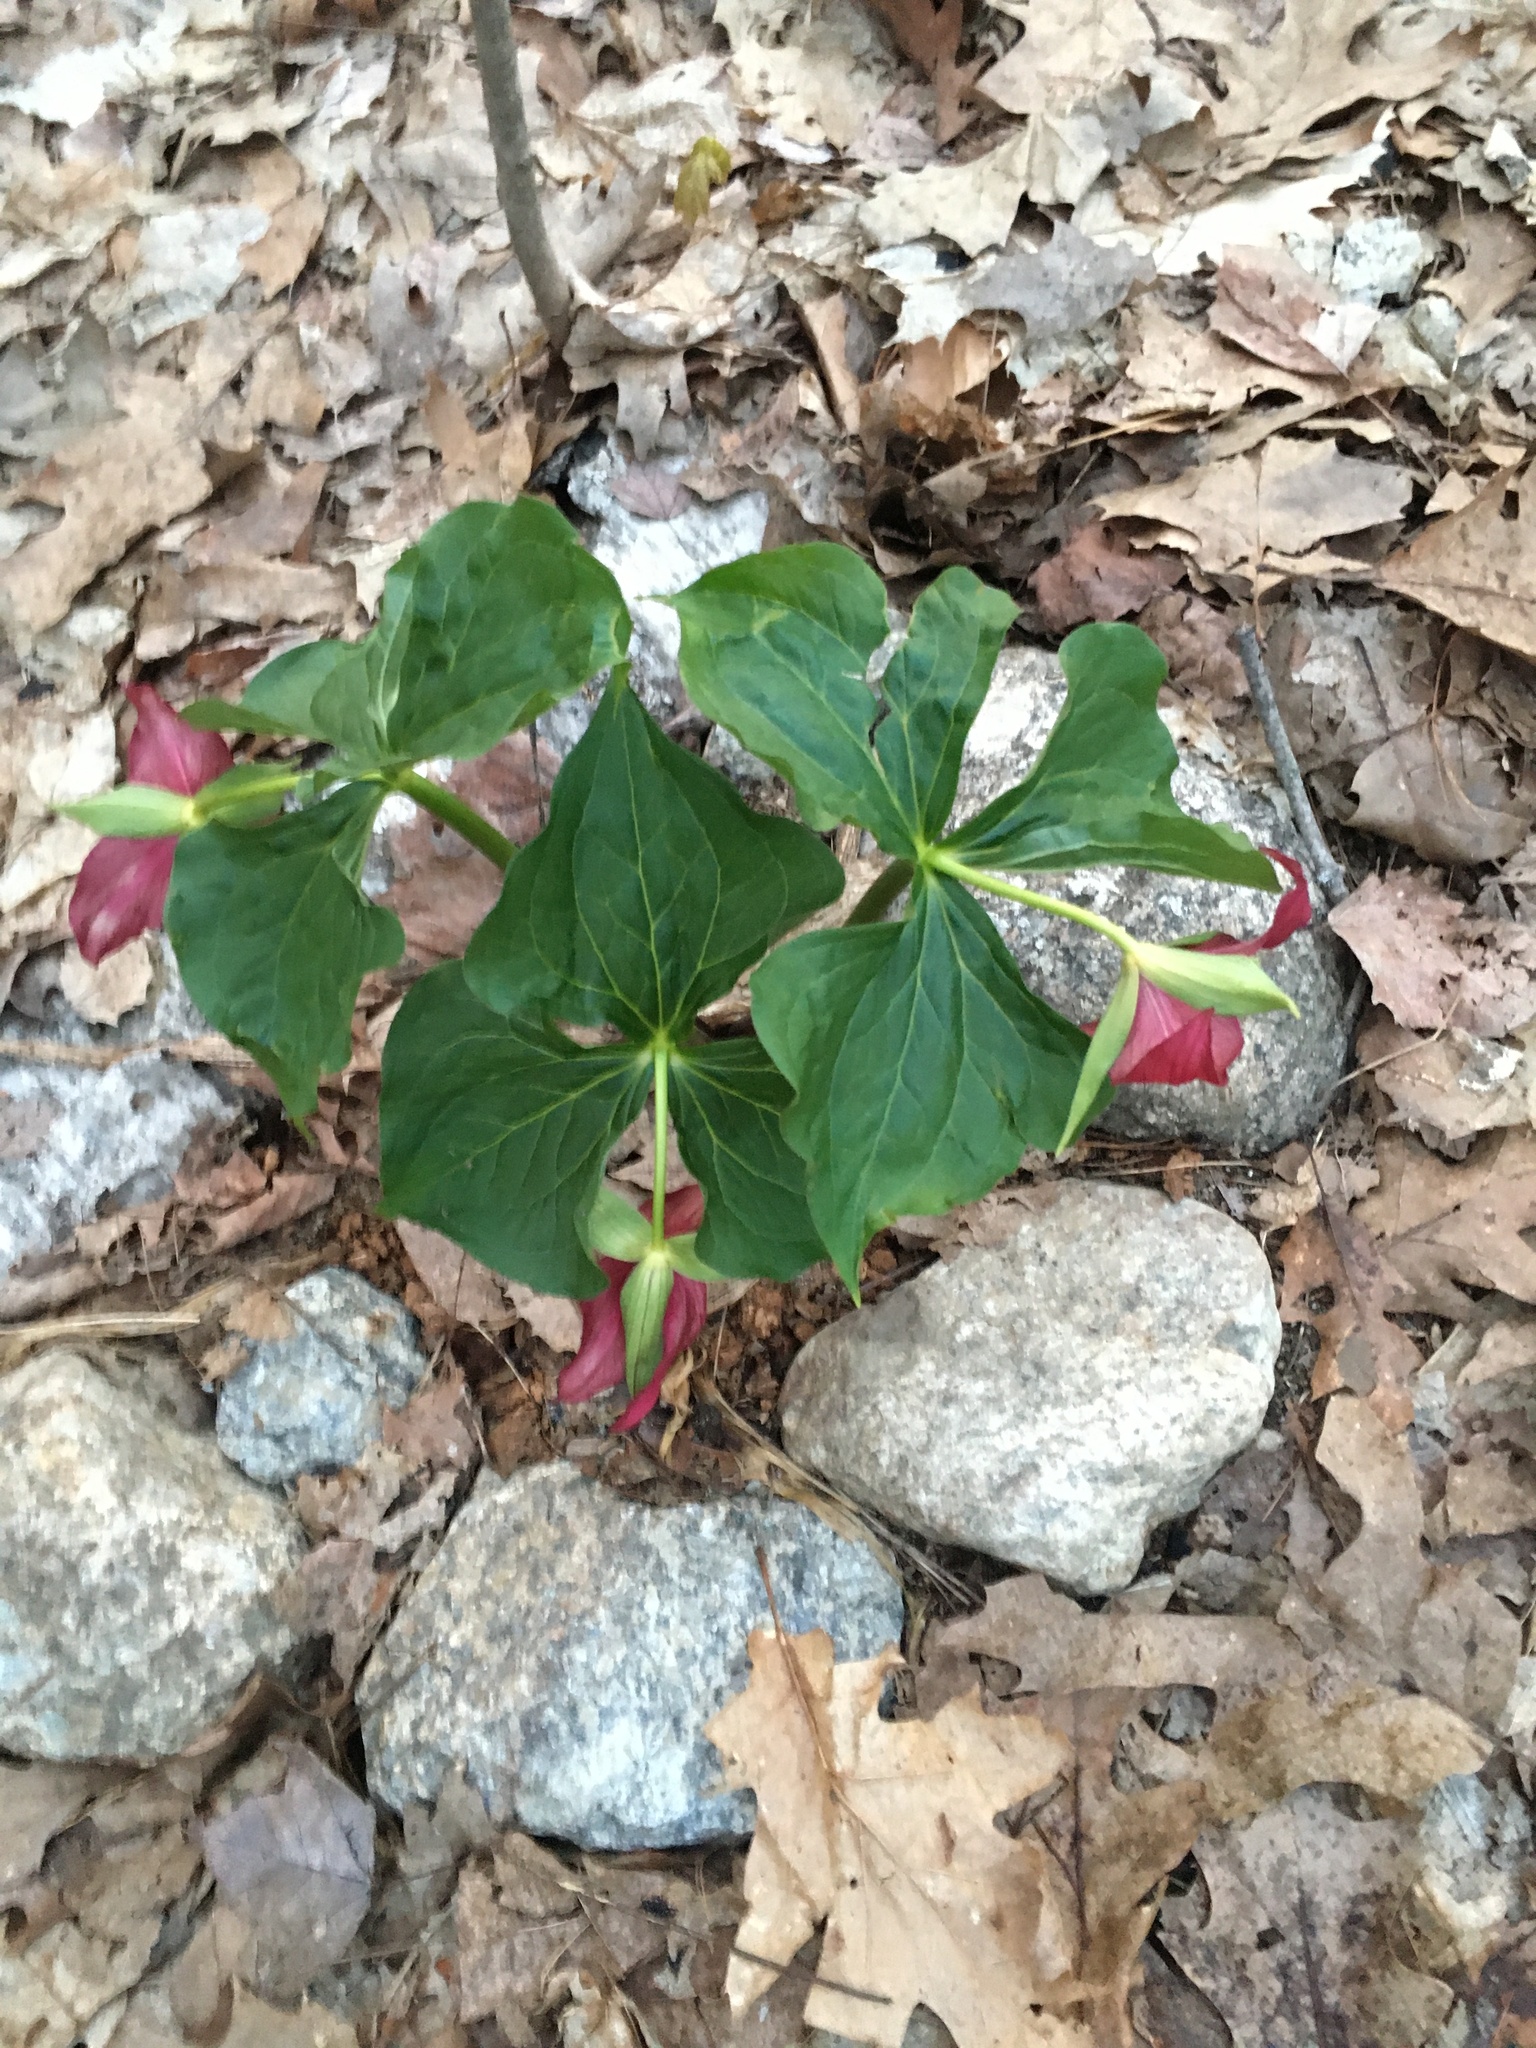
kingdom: Plantae
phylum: Tracheophyta
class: Liliopsida
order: Liliales
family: Melanthiaceae
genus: Trillium
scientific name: Trillium erectum
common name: Purple trillium
